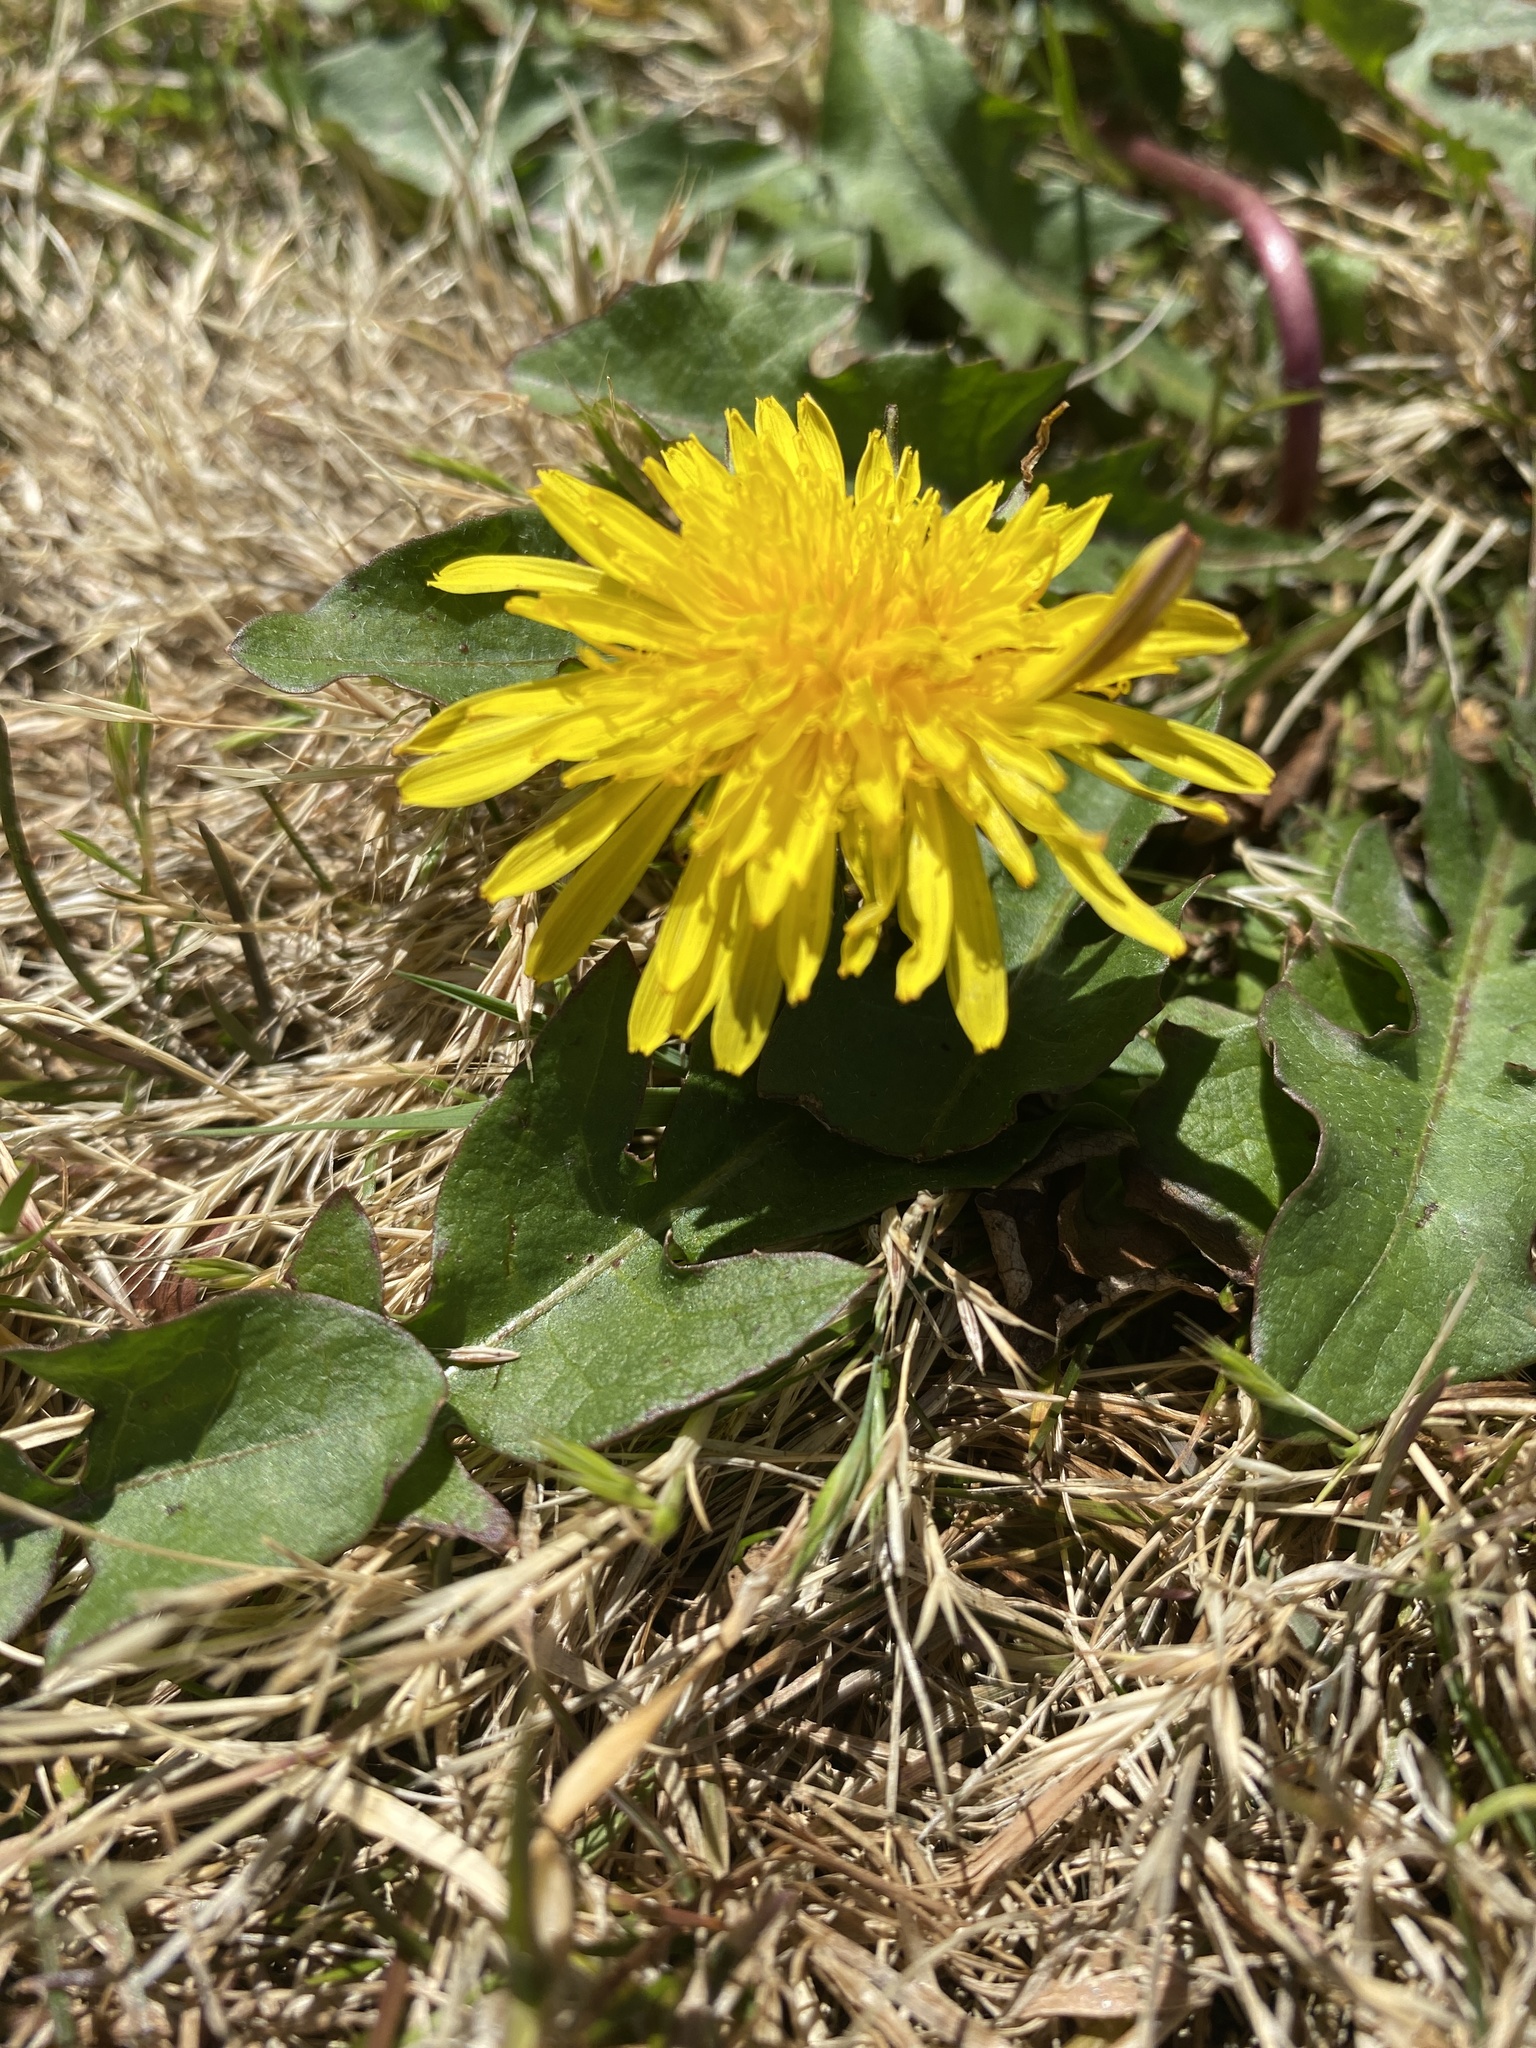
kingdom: Plantae
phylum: Tracheophyta
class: Magnoliopsida
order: Asterales
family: Asteraceae
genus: Taraxacum
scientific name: Taraxacum officinale
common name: Common dandelion
